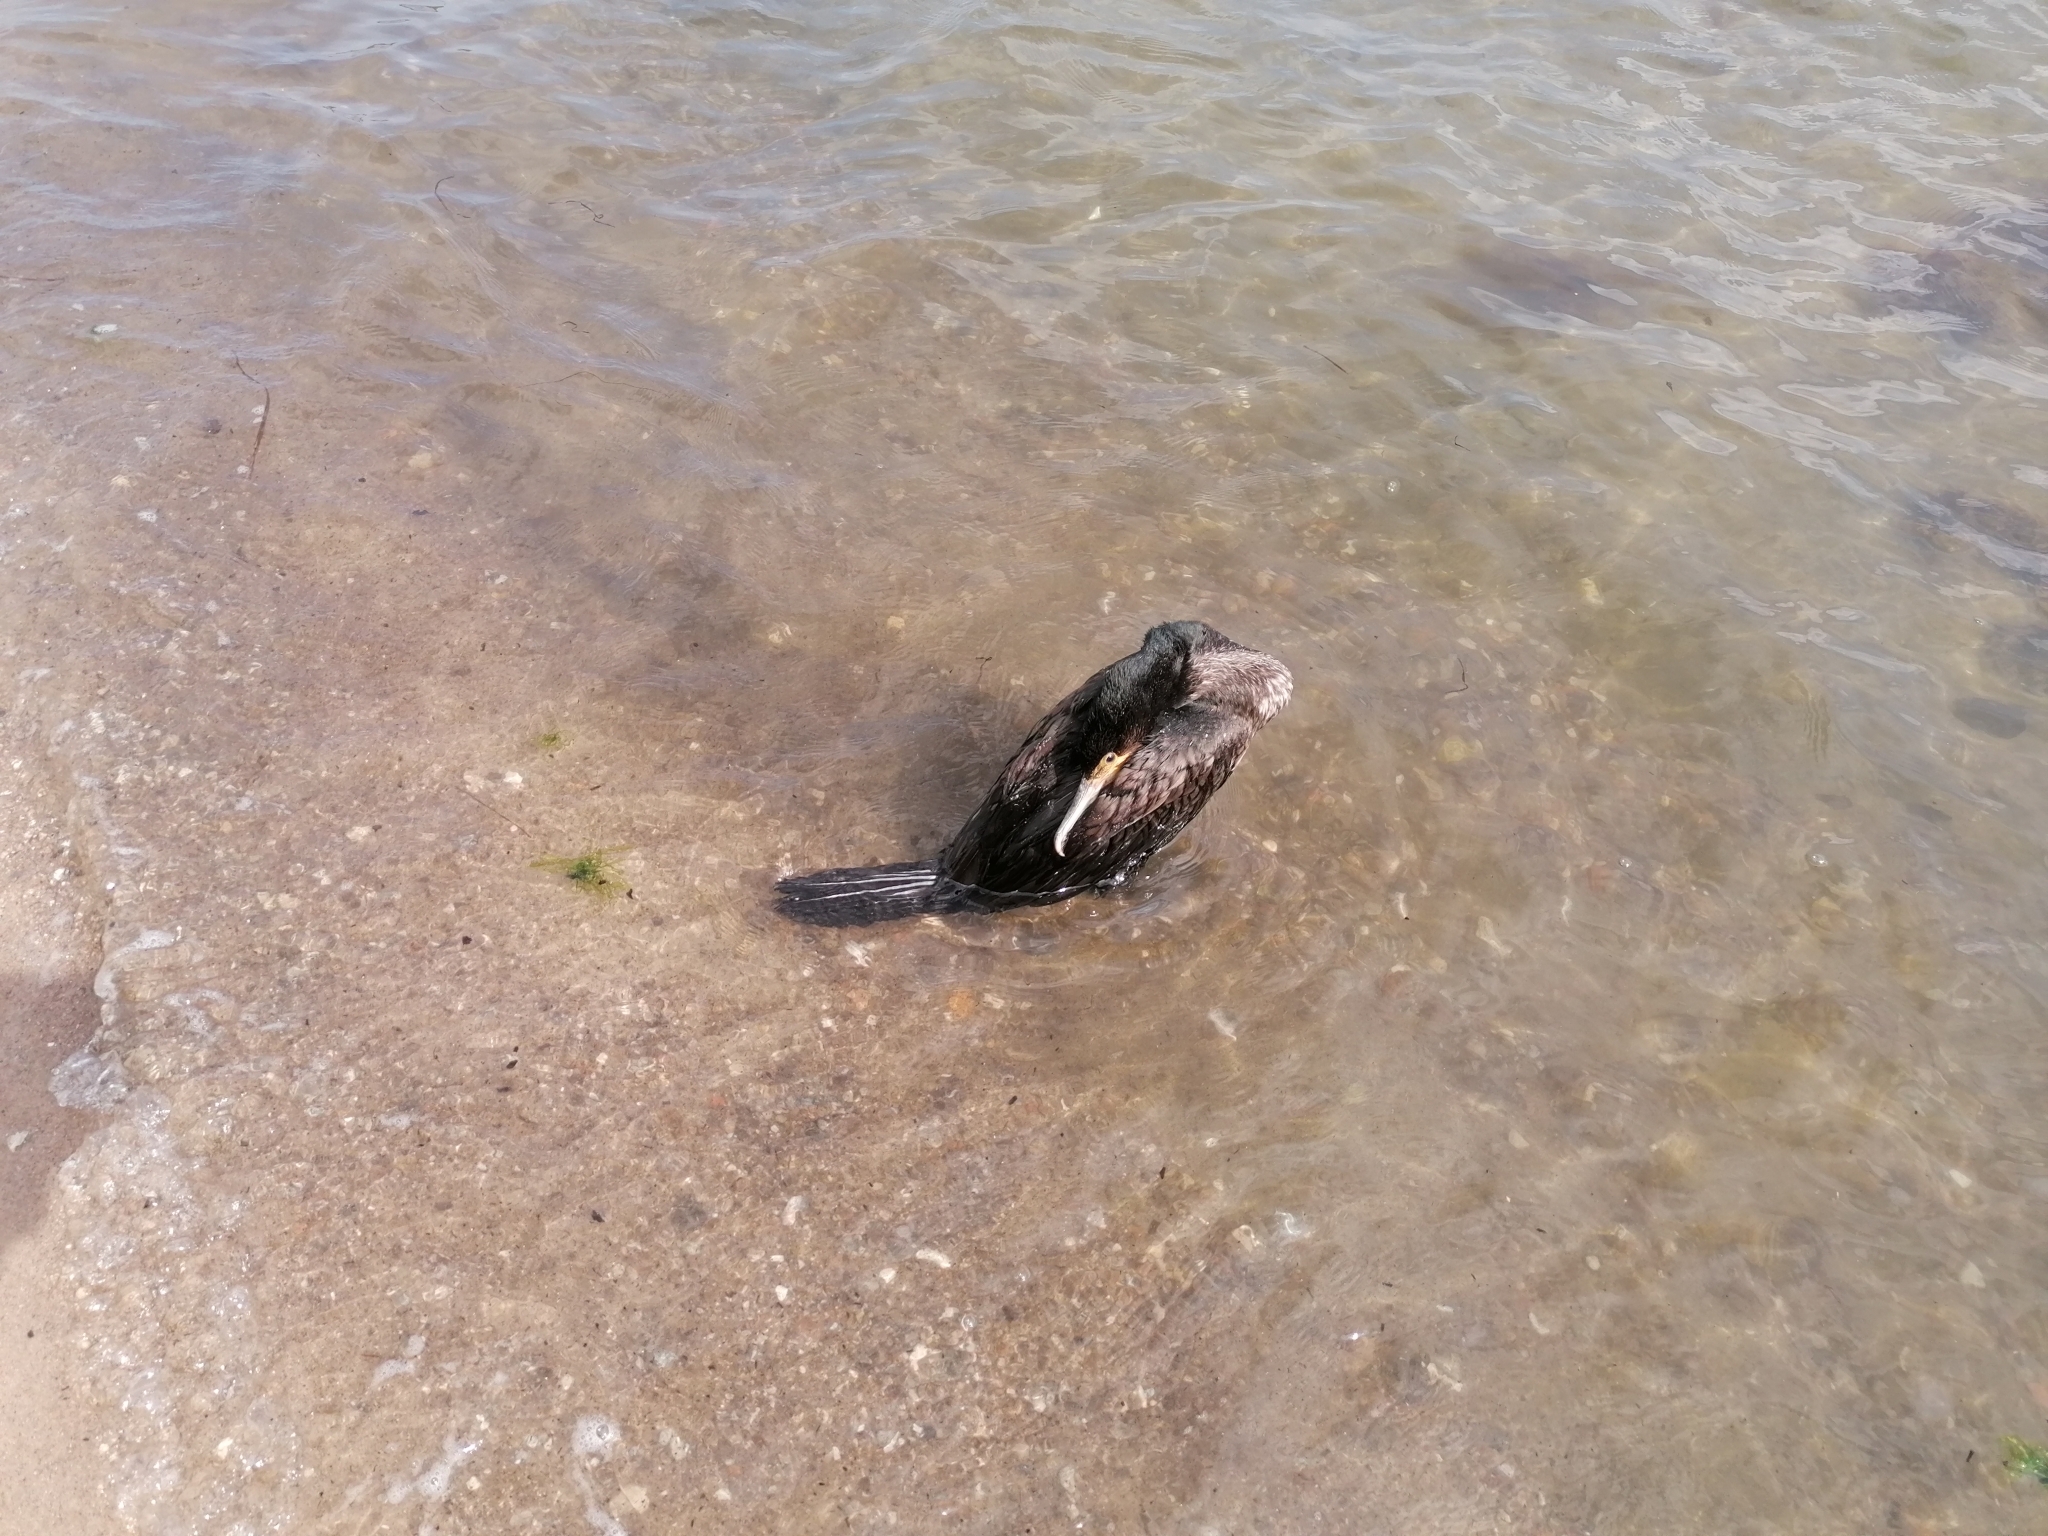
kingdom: Animalia
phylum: Chordata
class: Aves
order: Suliformes
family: Phalacrocoracidae
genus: Phalacrocorax
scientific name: Phalacrocorax carbo
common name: Great cormorant
